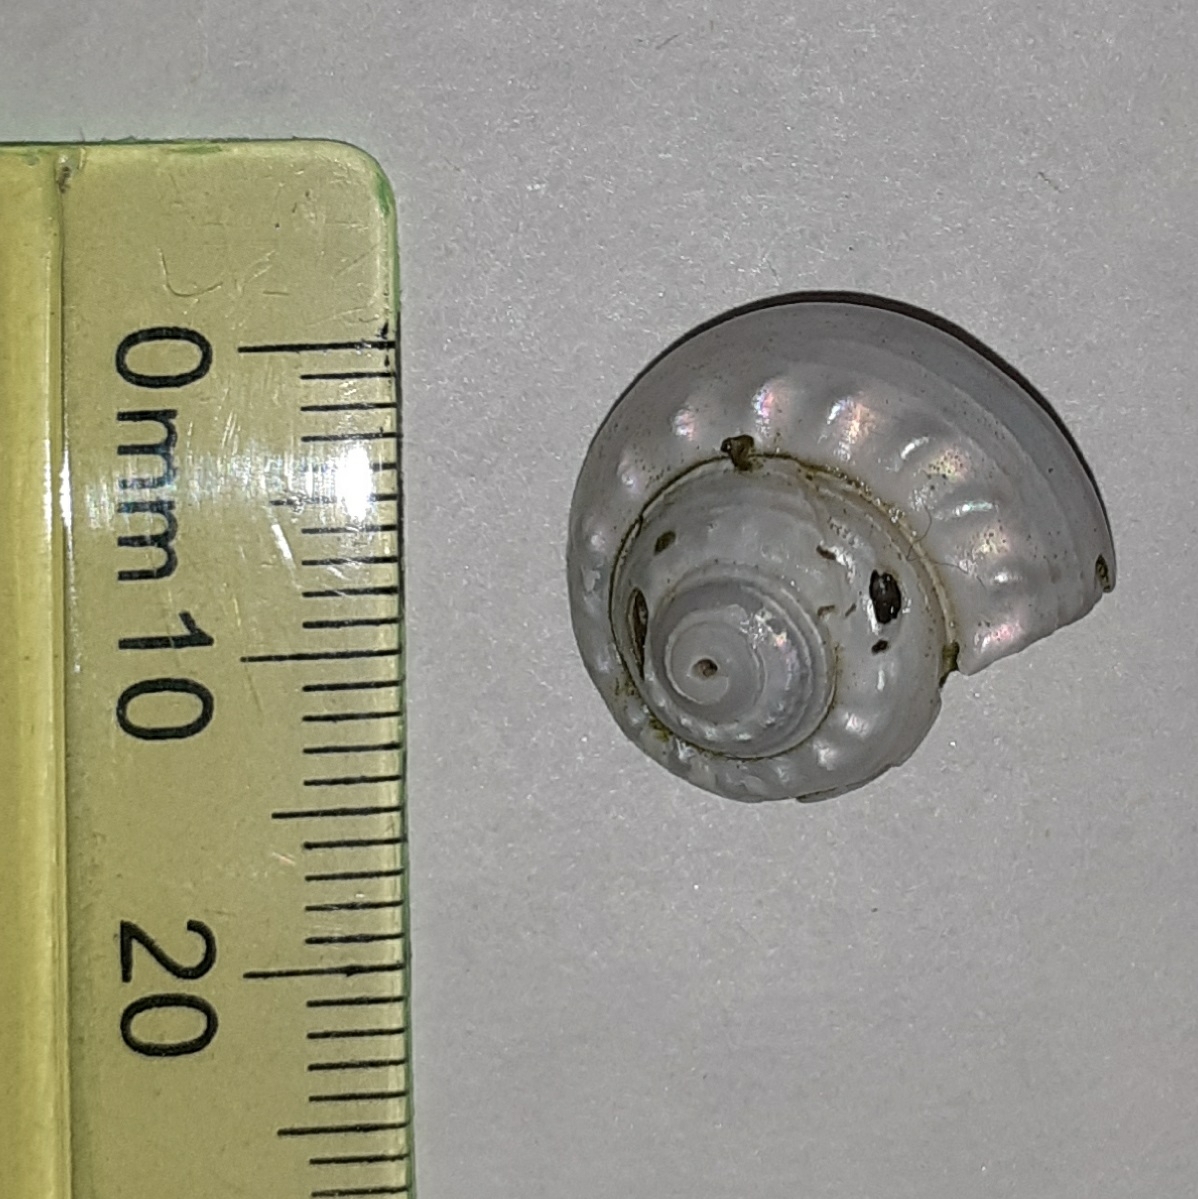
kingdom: Animalia
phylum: Mollusca
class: Gastropoda
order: Trochida
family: Trochidae
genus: Gibbula
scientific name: Gibbula magus
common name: Turban top shell
